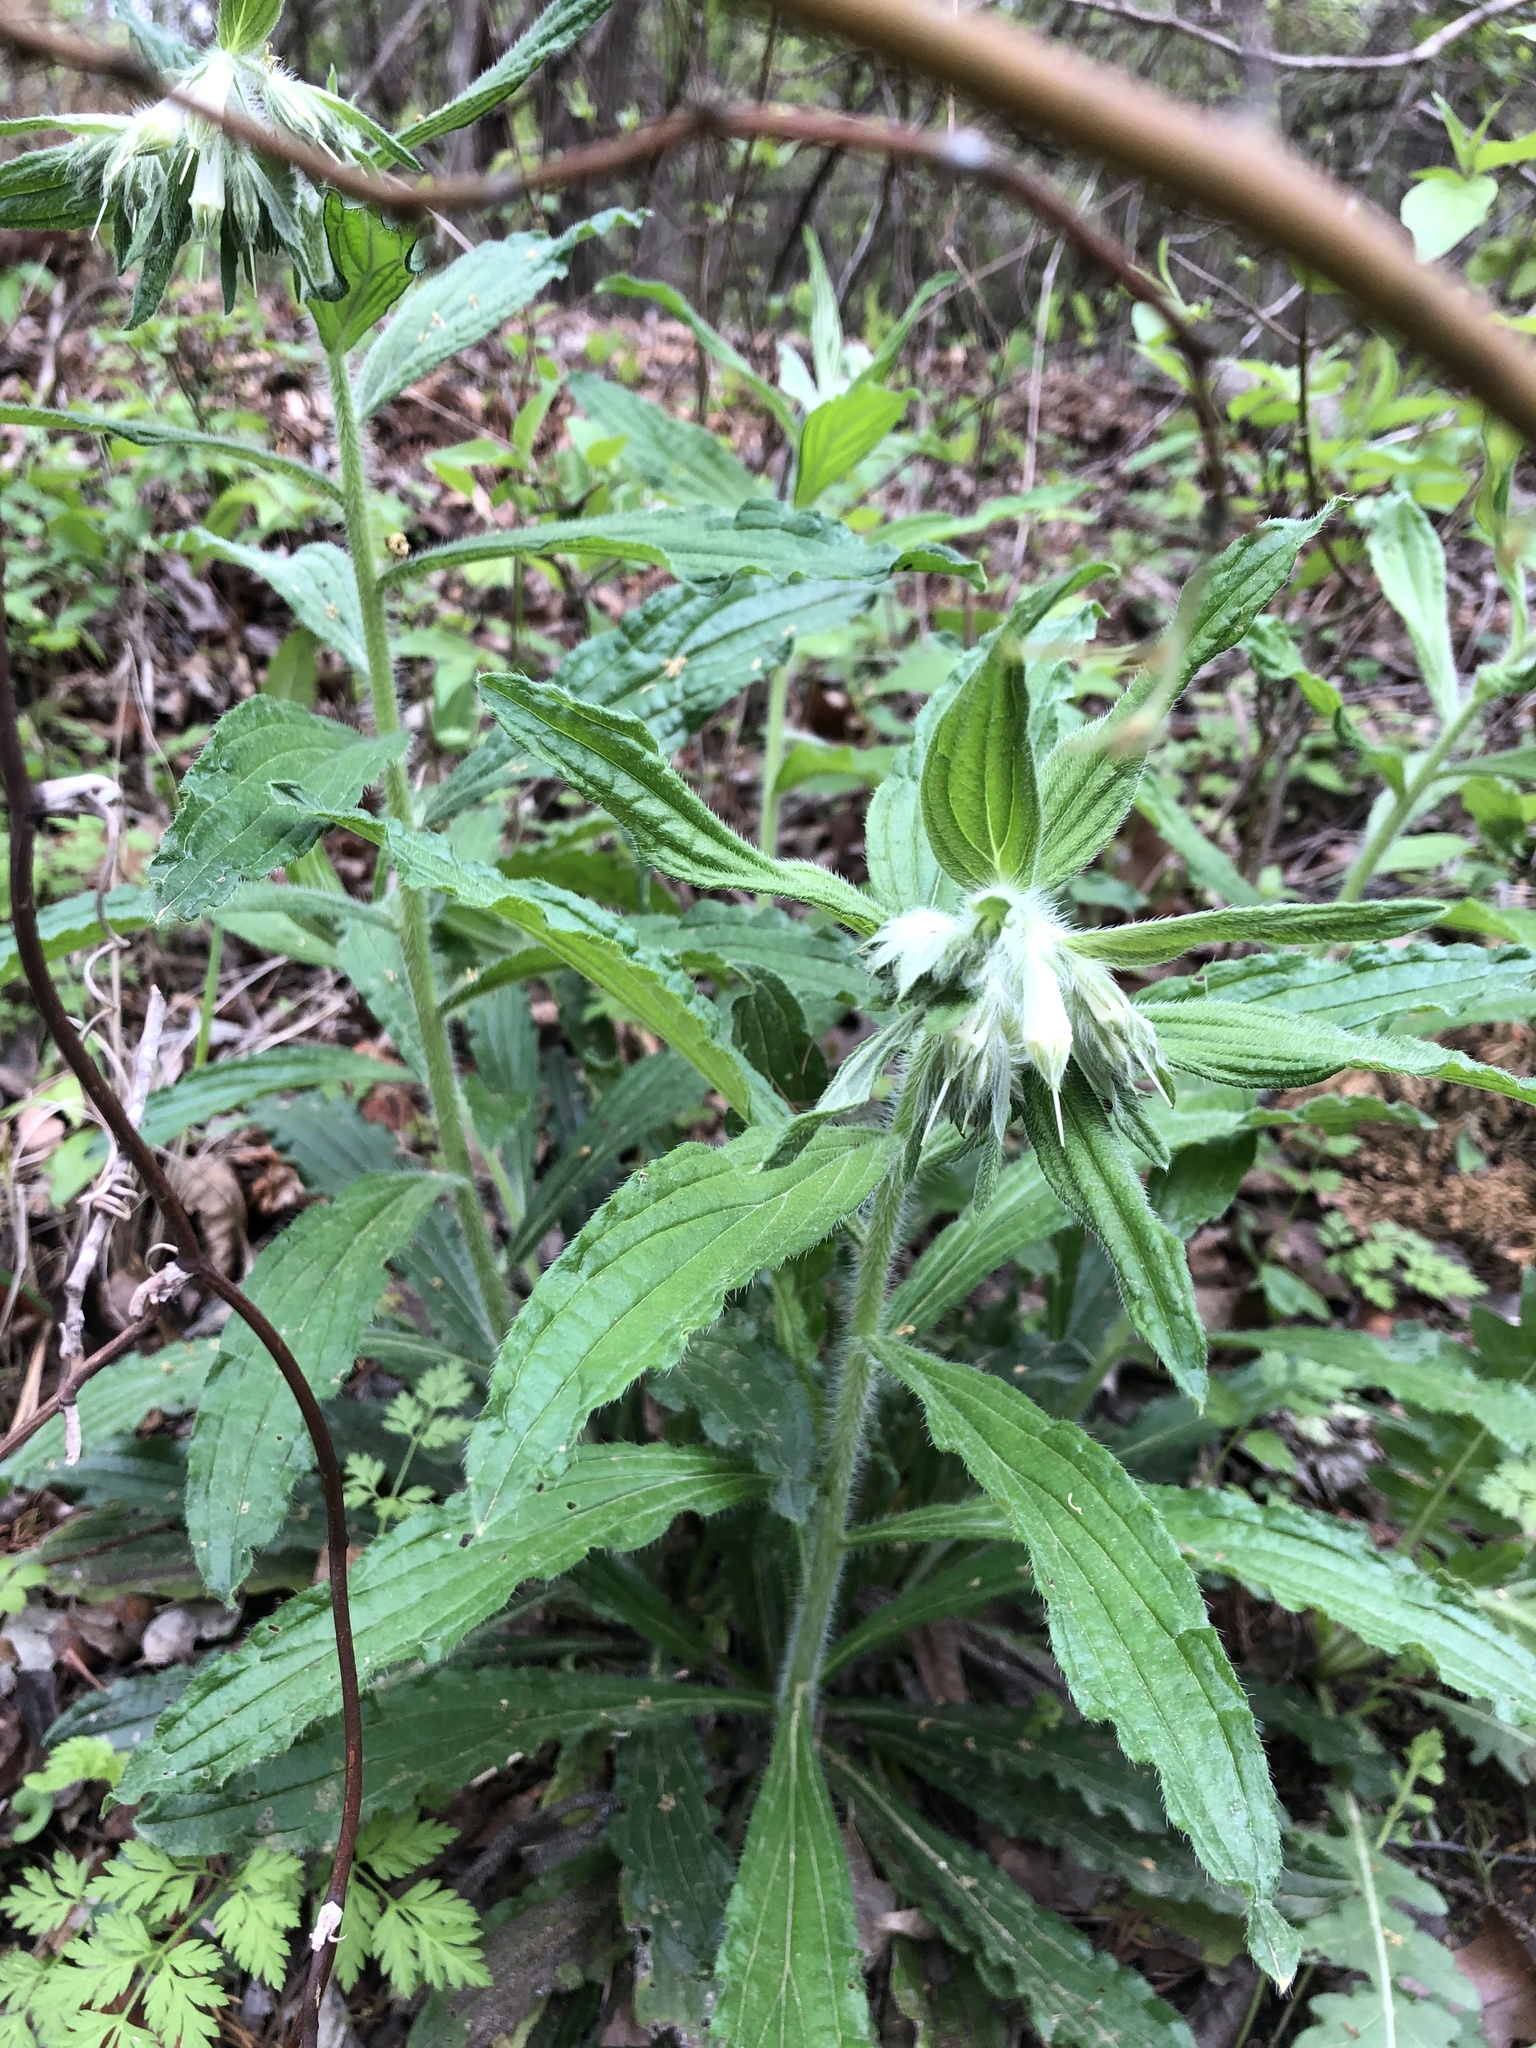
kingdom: Plantae
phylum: Tracheophyta
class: Magnoliopsida
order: Boraginales
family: Boraginaceae
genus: Lithospermum
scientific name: Lithospermum caroliniense
